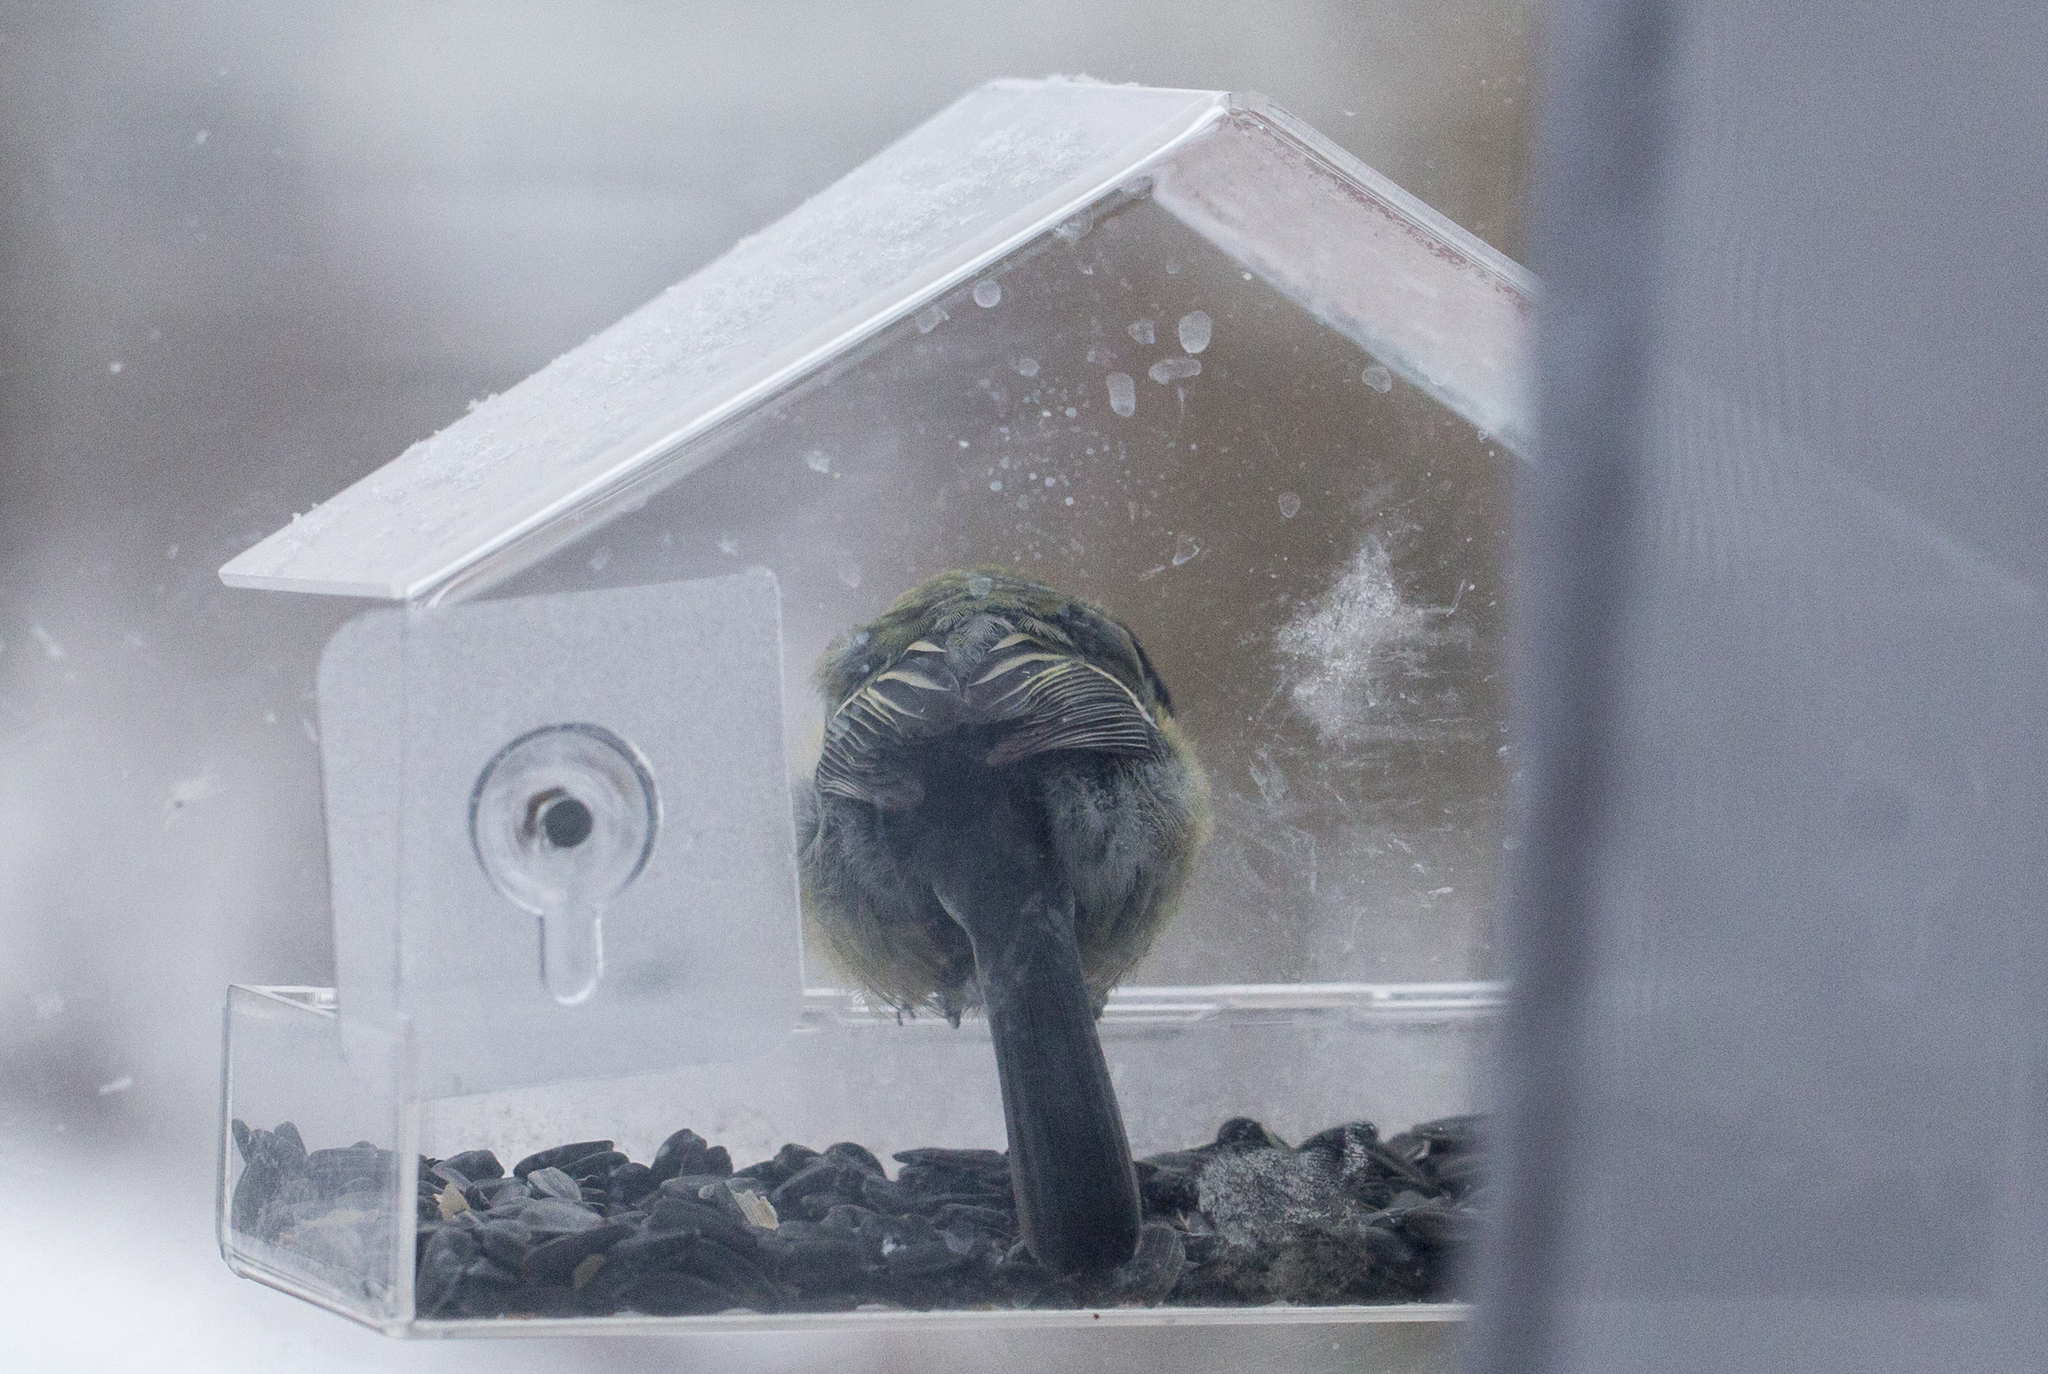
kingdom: Animalia
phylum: Chordata
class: Aves
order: Passeriformes
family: Paridae
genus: Parus
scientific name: Parus major
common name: Great tit
